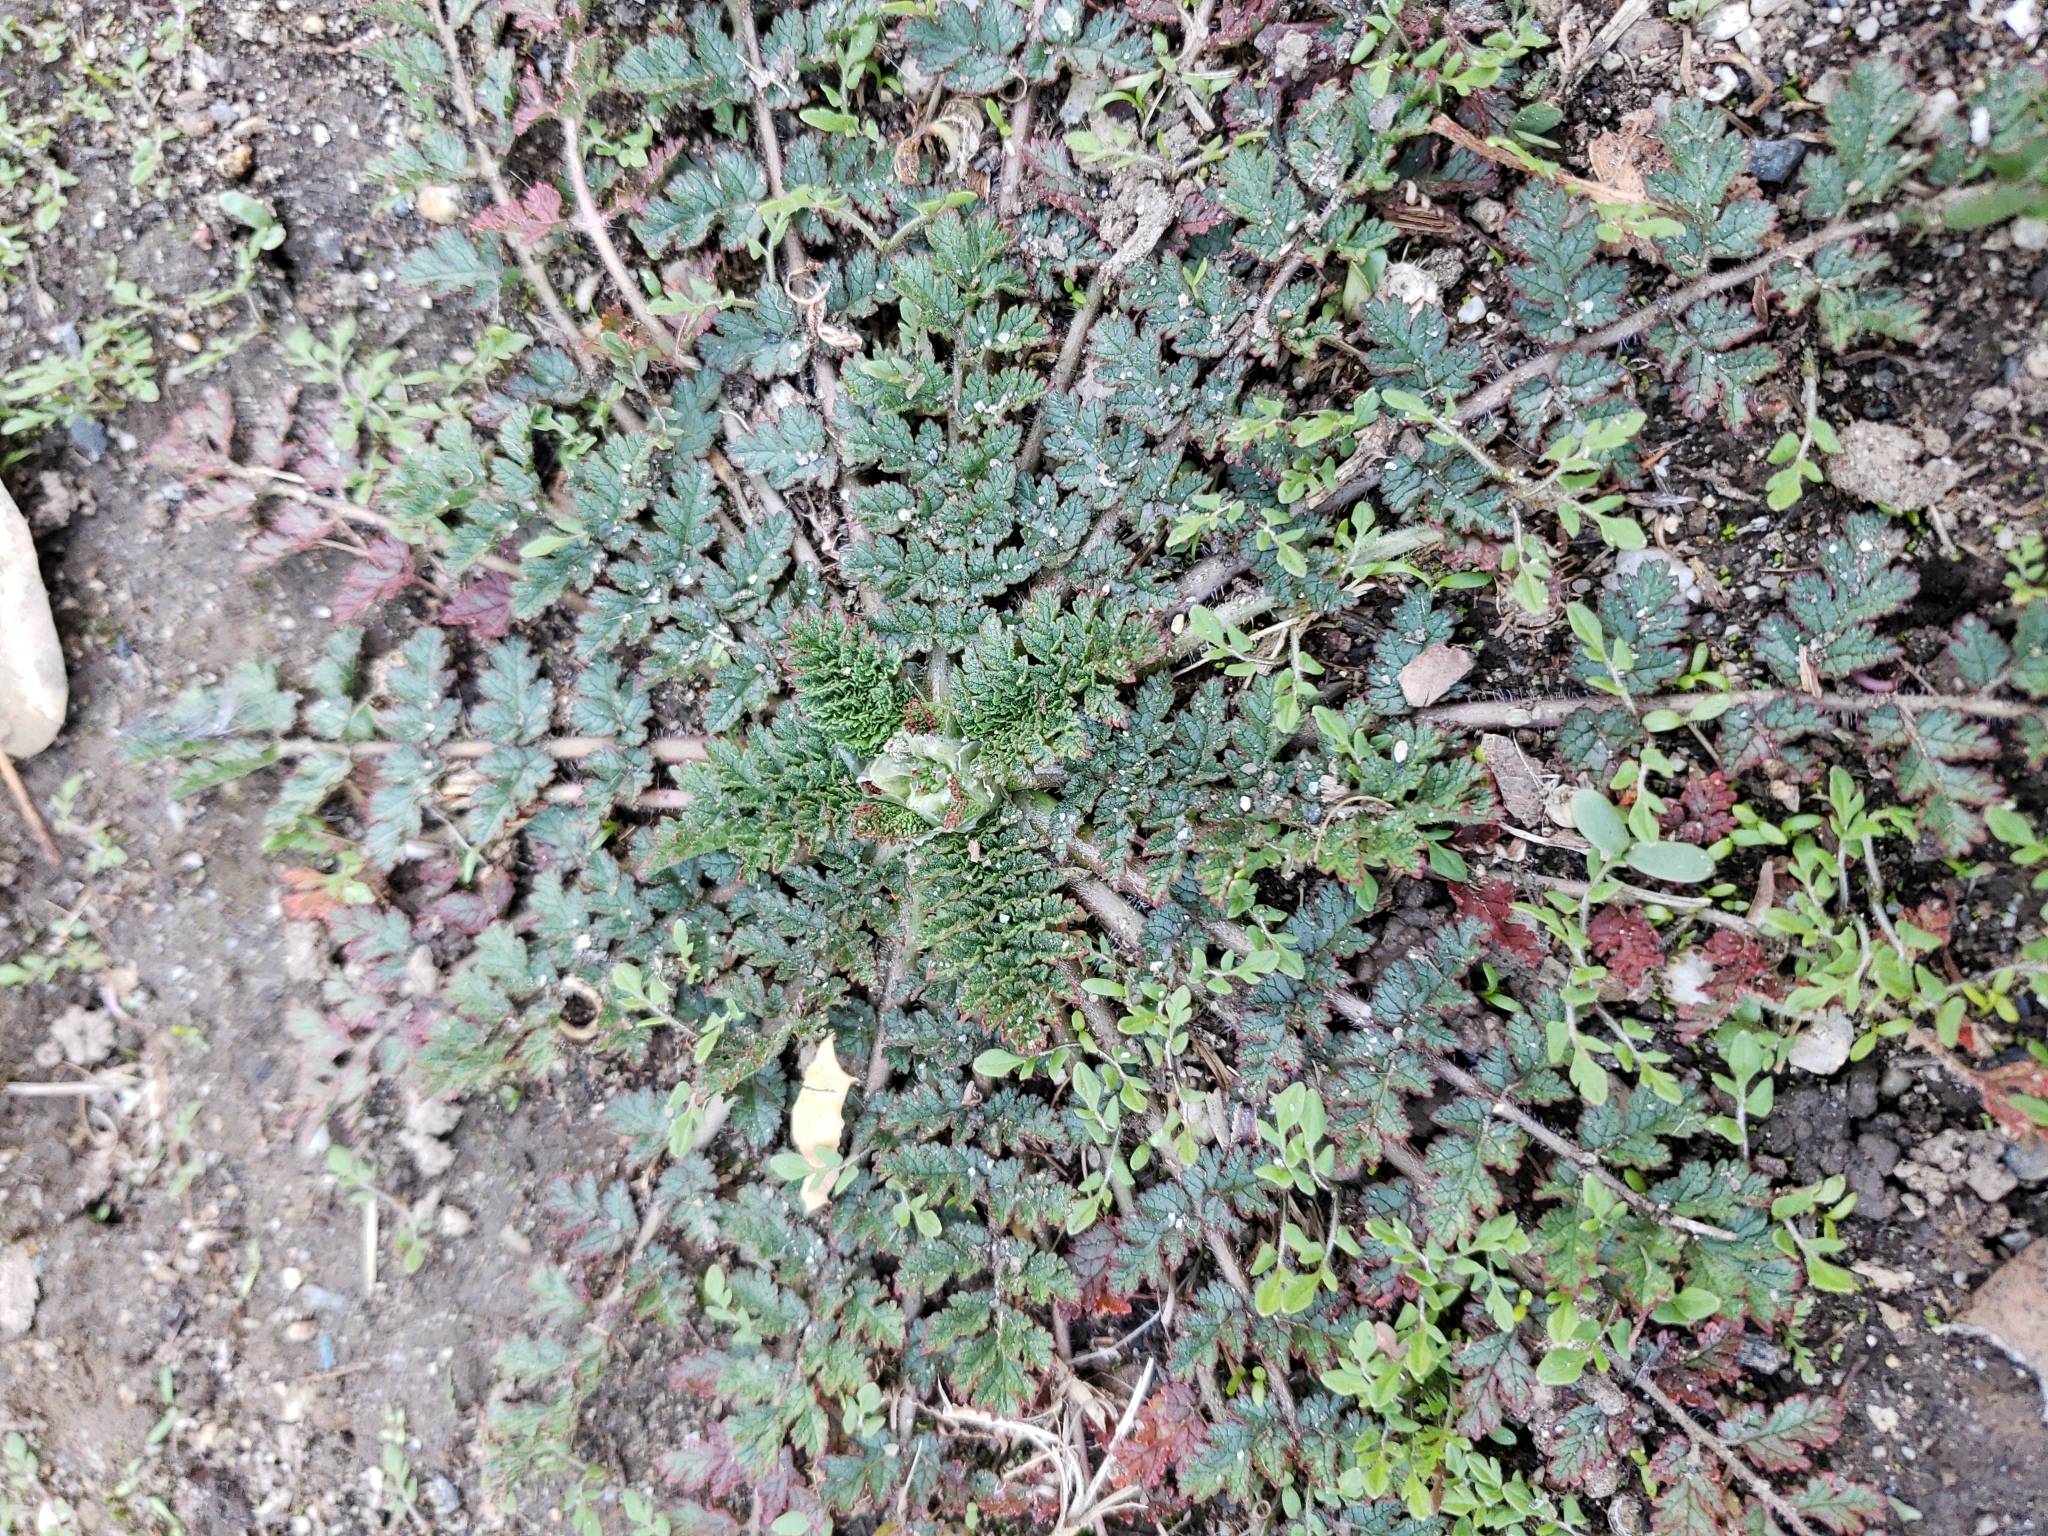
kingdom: Plantae
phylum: Tracheophyta
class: Magnoliopsida
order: Geraniales
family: Geraniaceae
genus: Erodium
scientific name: Erodium cicutarium
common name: Common stork's-bill
